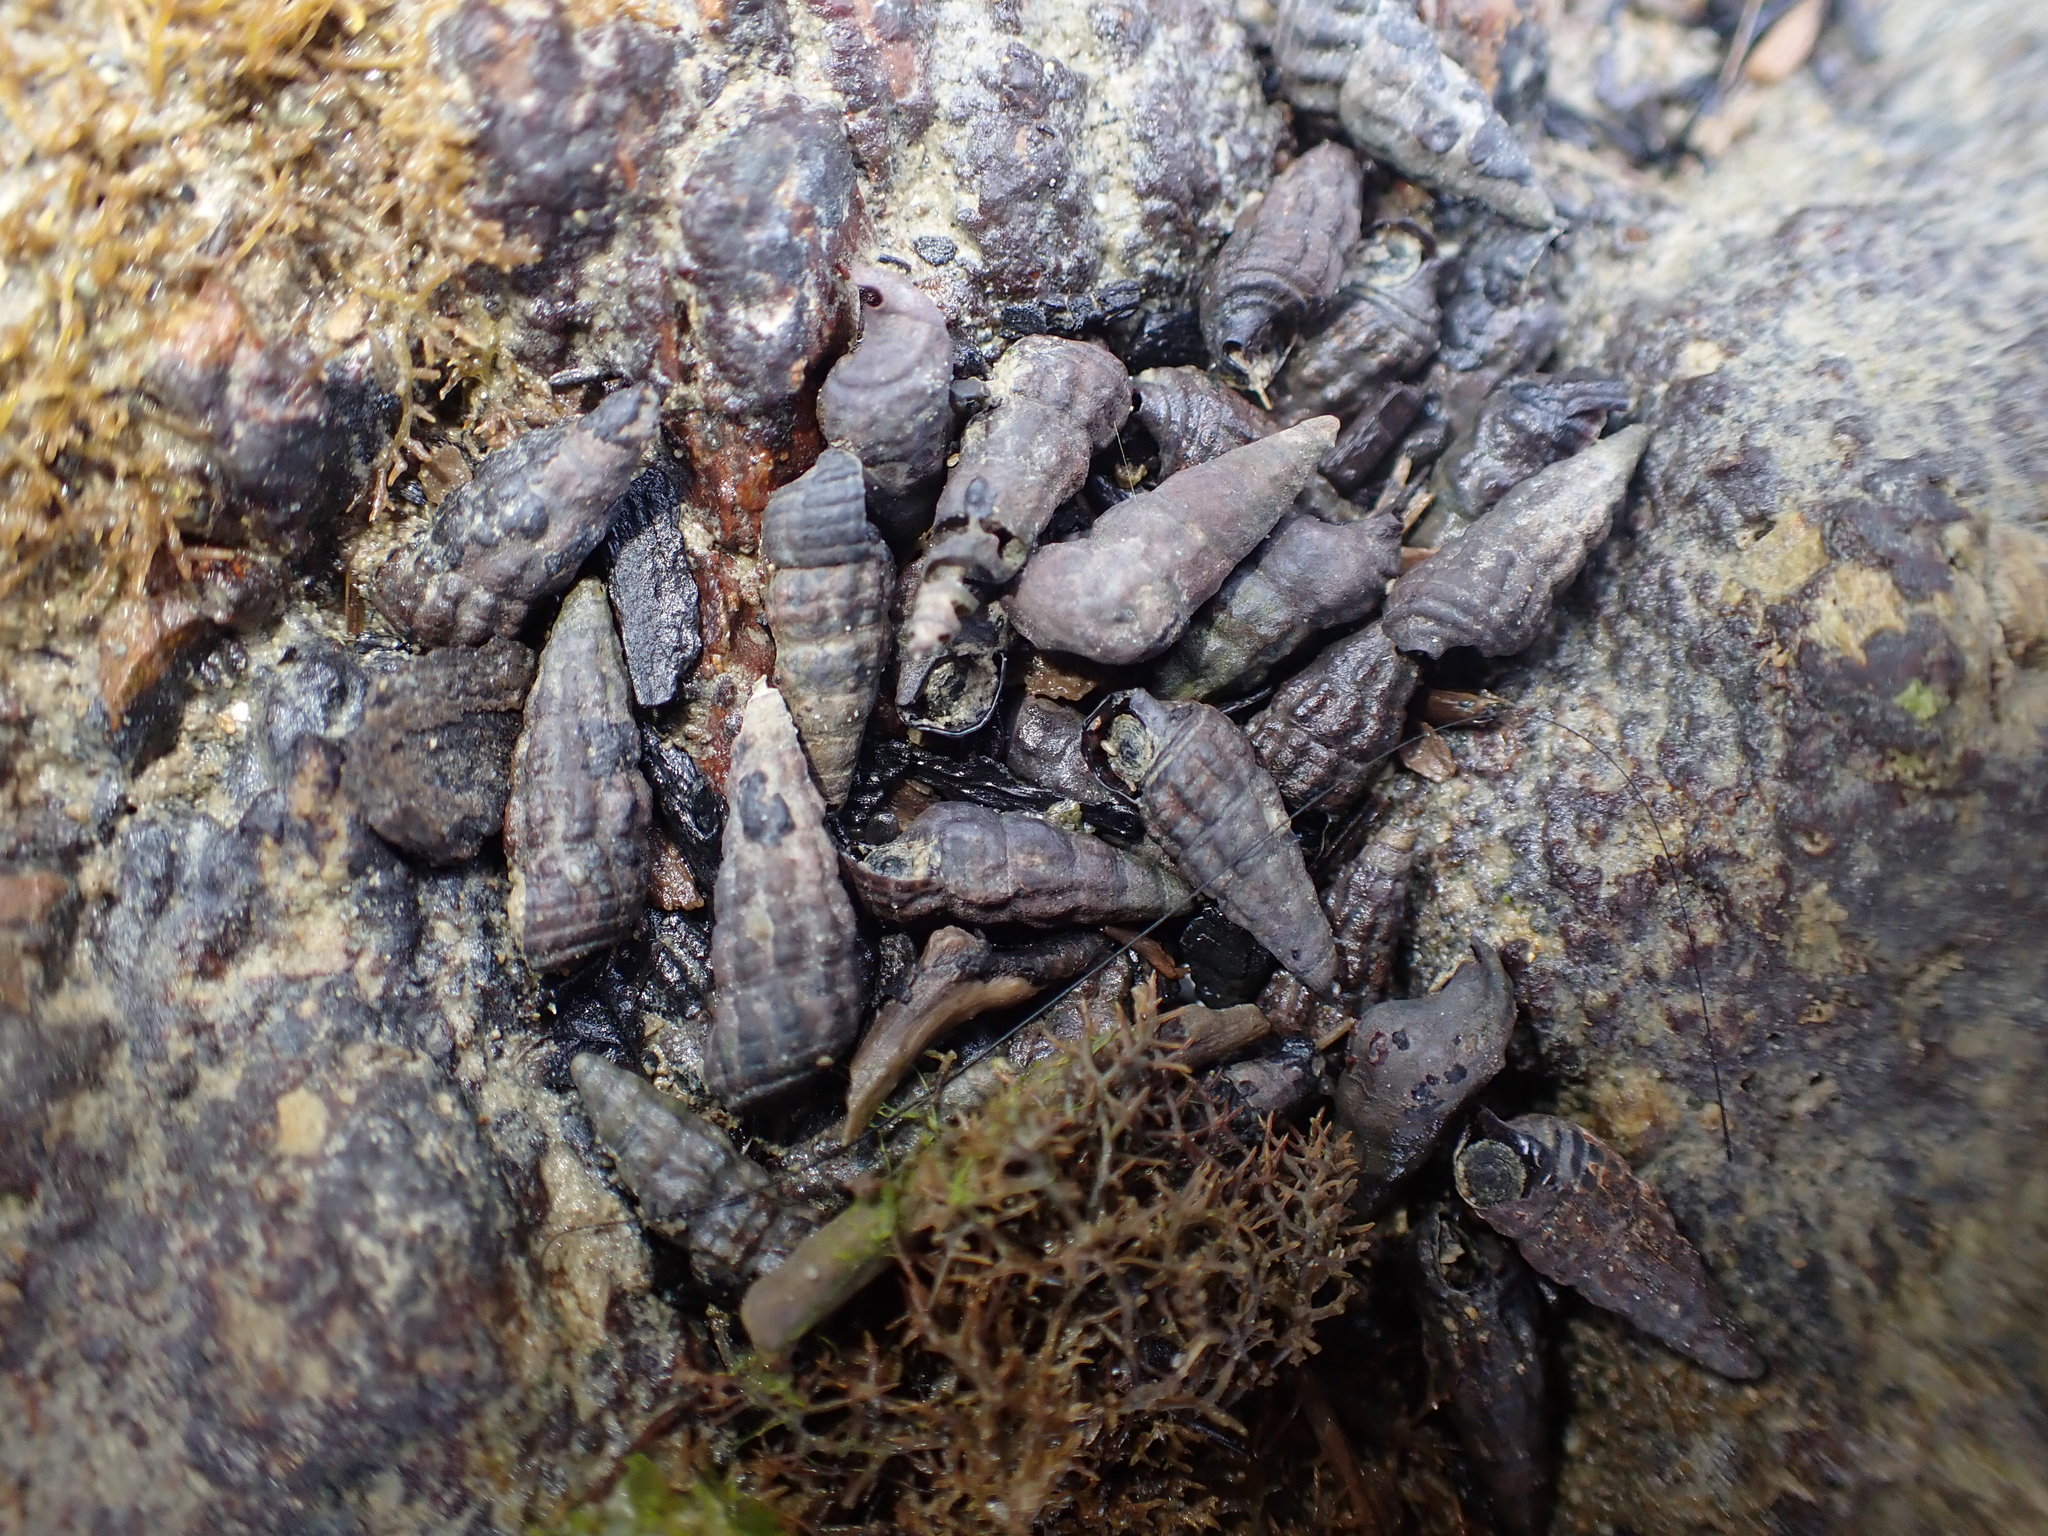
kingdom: Animalia
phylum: Mollusca
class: Gastropoda
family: Batillariidae
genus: Zeacumantus
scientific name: Zeacumantus subcarinatus
